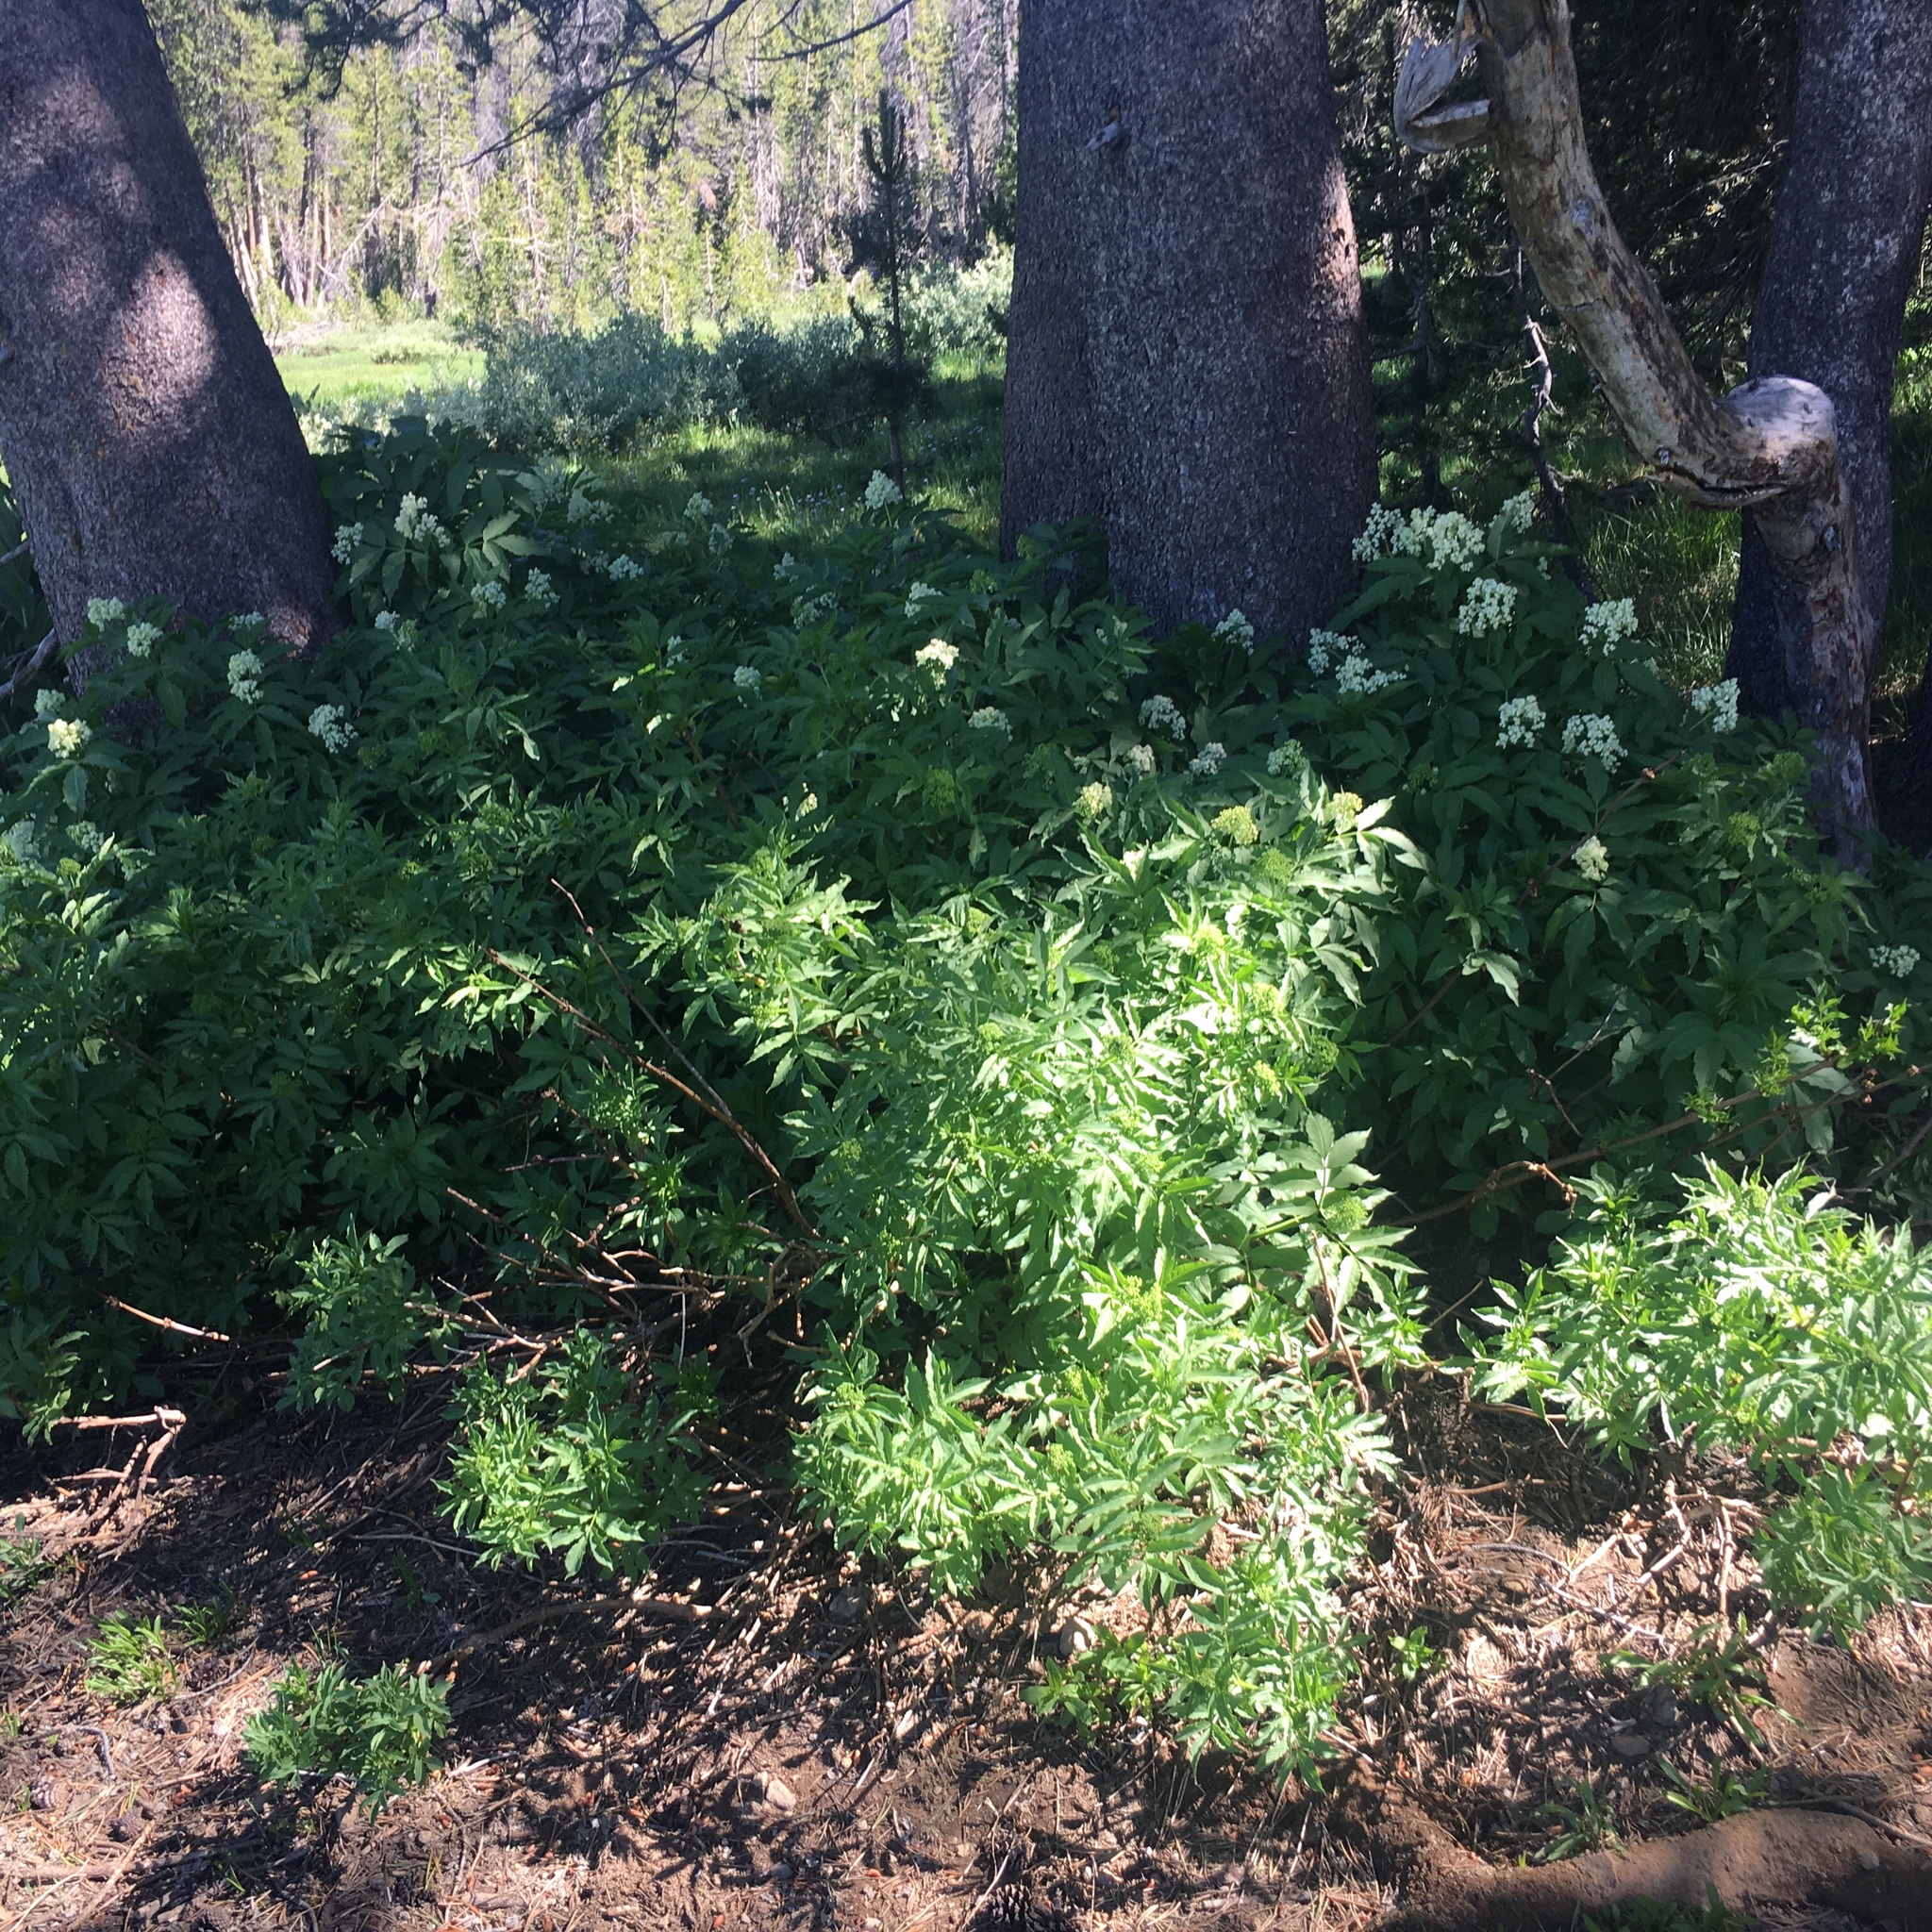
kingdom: Plantae
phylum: Tracheophyta
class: Magnoliopsida
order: Dipsacales
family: Viburnaceae
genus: Sambucus
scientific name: Sambucus racemosa
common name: Red-berried elder
